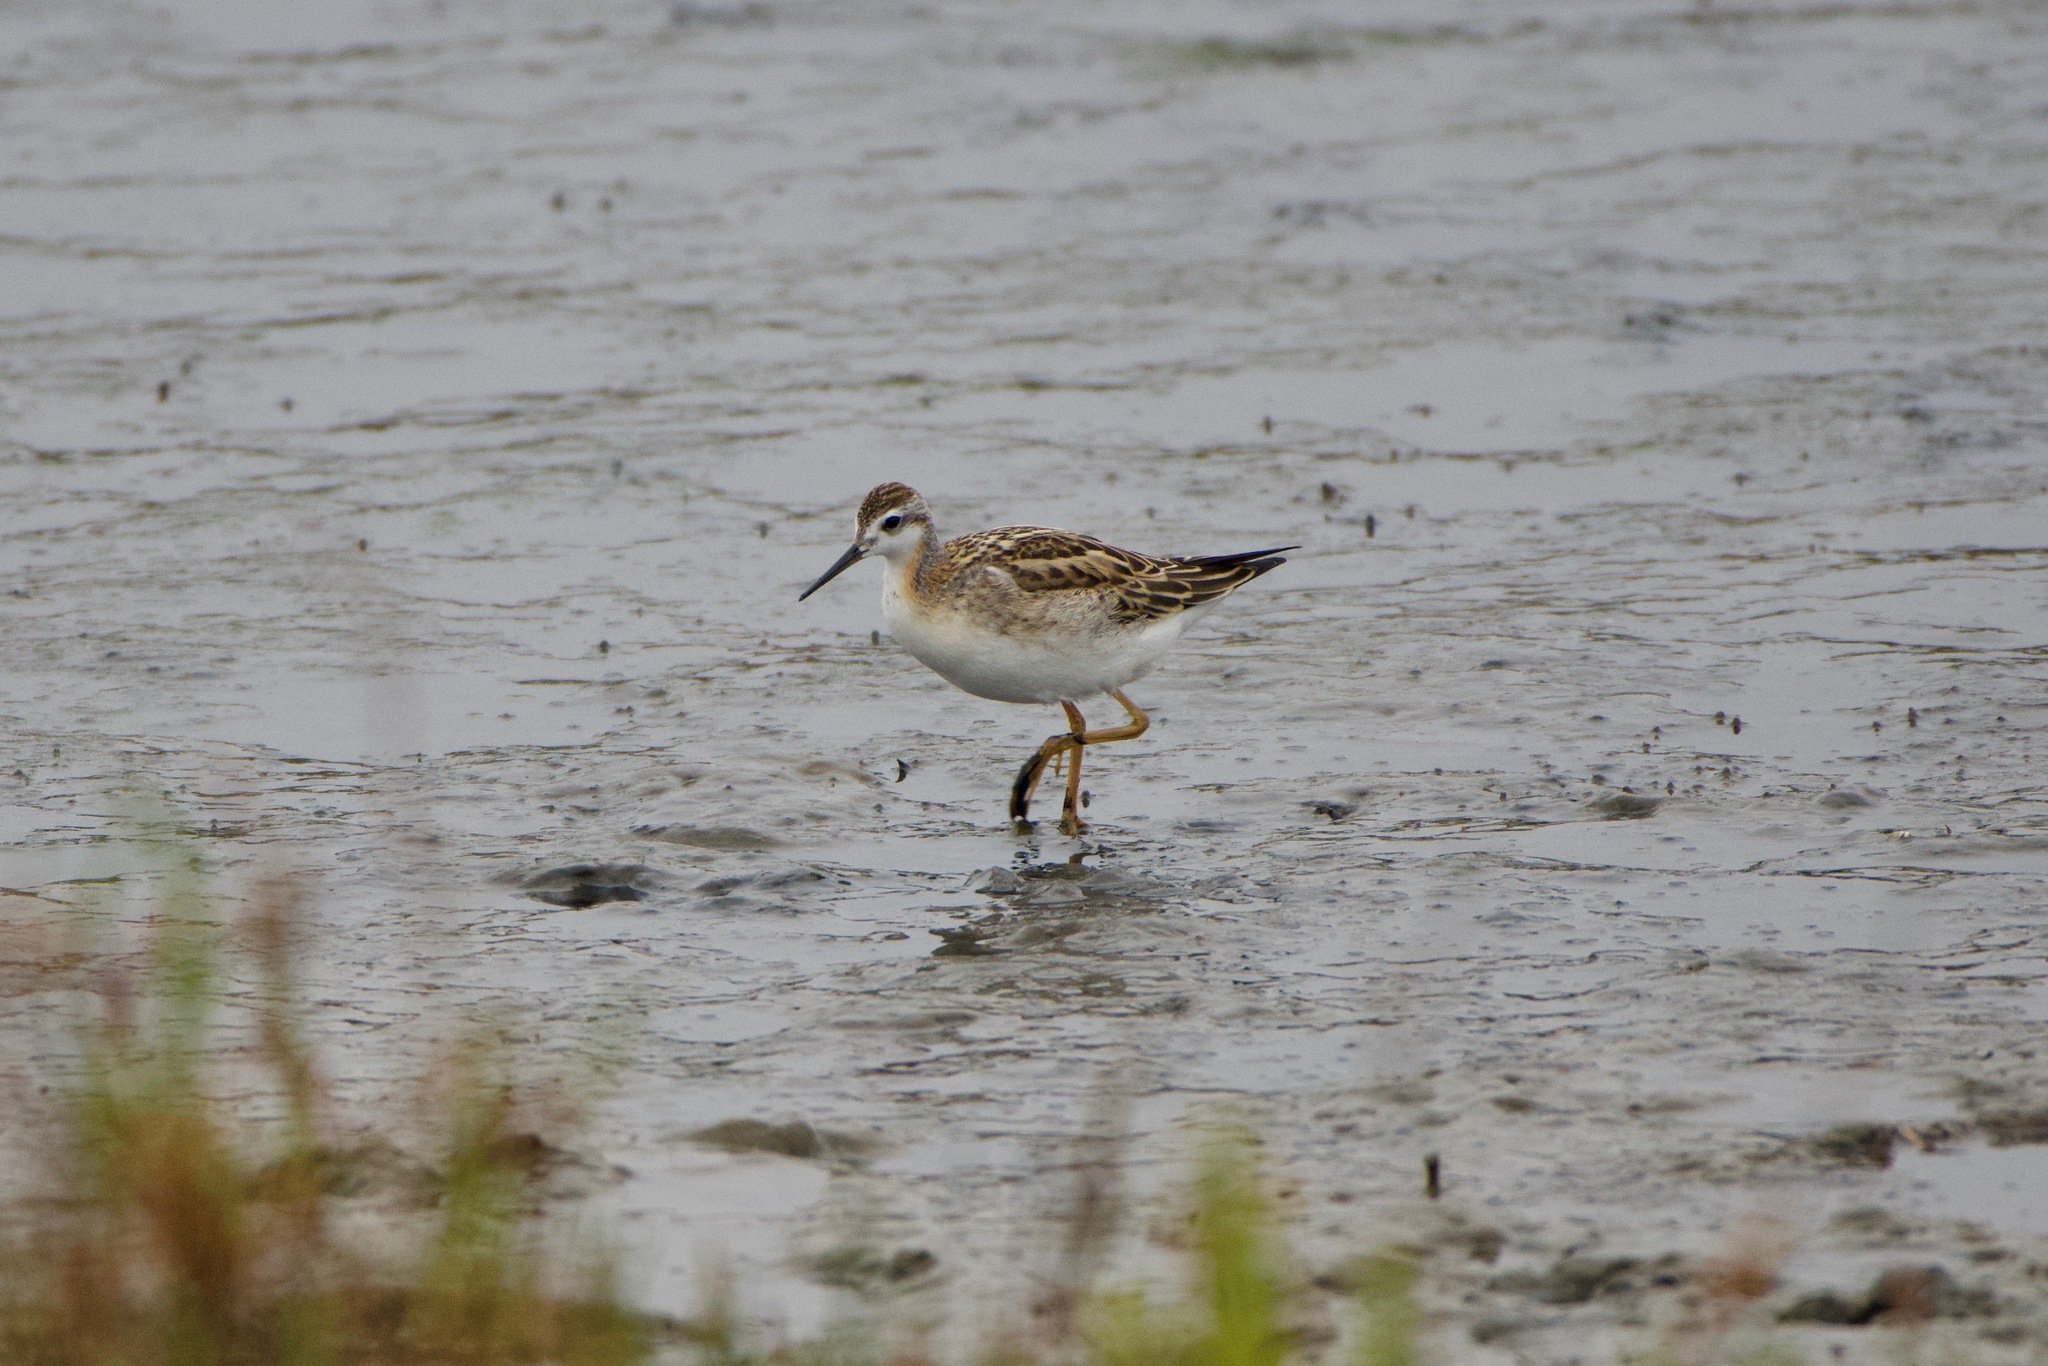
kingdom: Animalia
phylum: Chordata
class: Aves
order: Charadriiformes
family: Scolopacidae
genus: Phalaropus
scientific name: Phalaropus tricolor
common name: Wilson's phalarope
